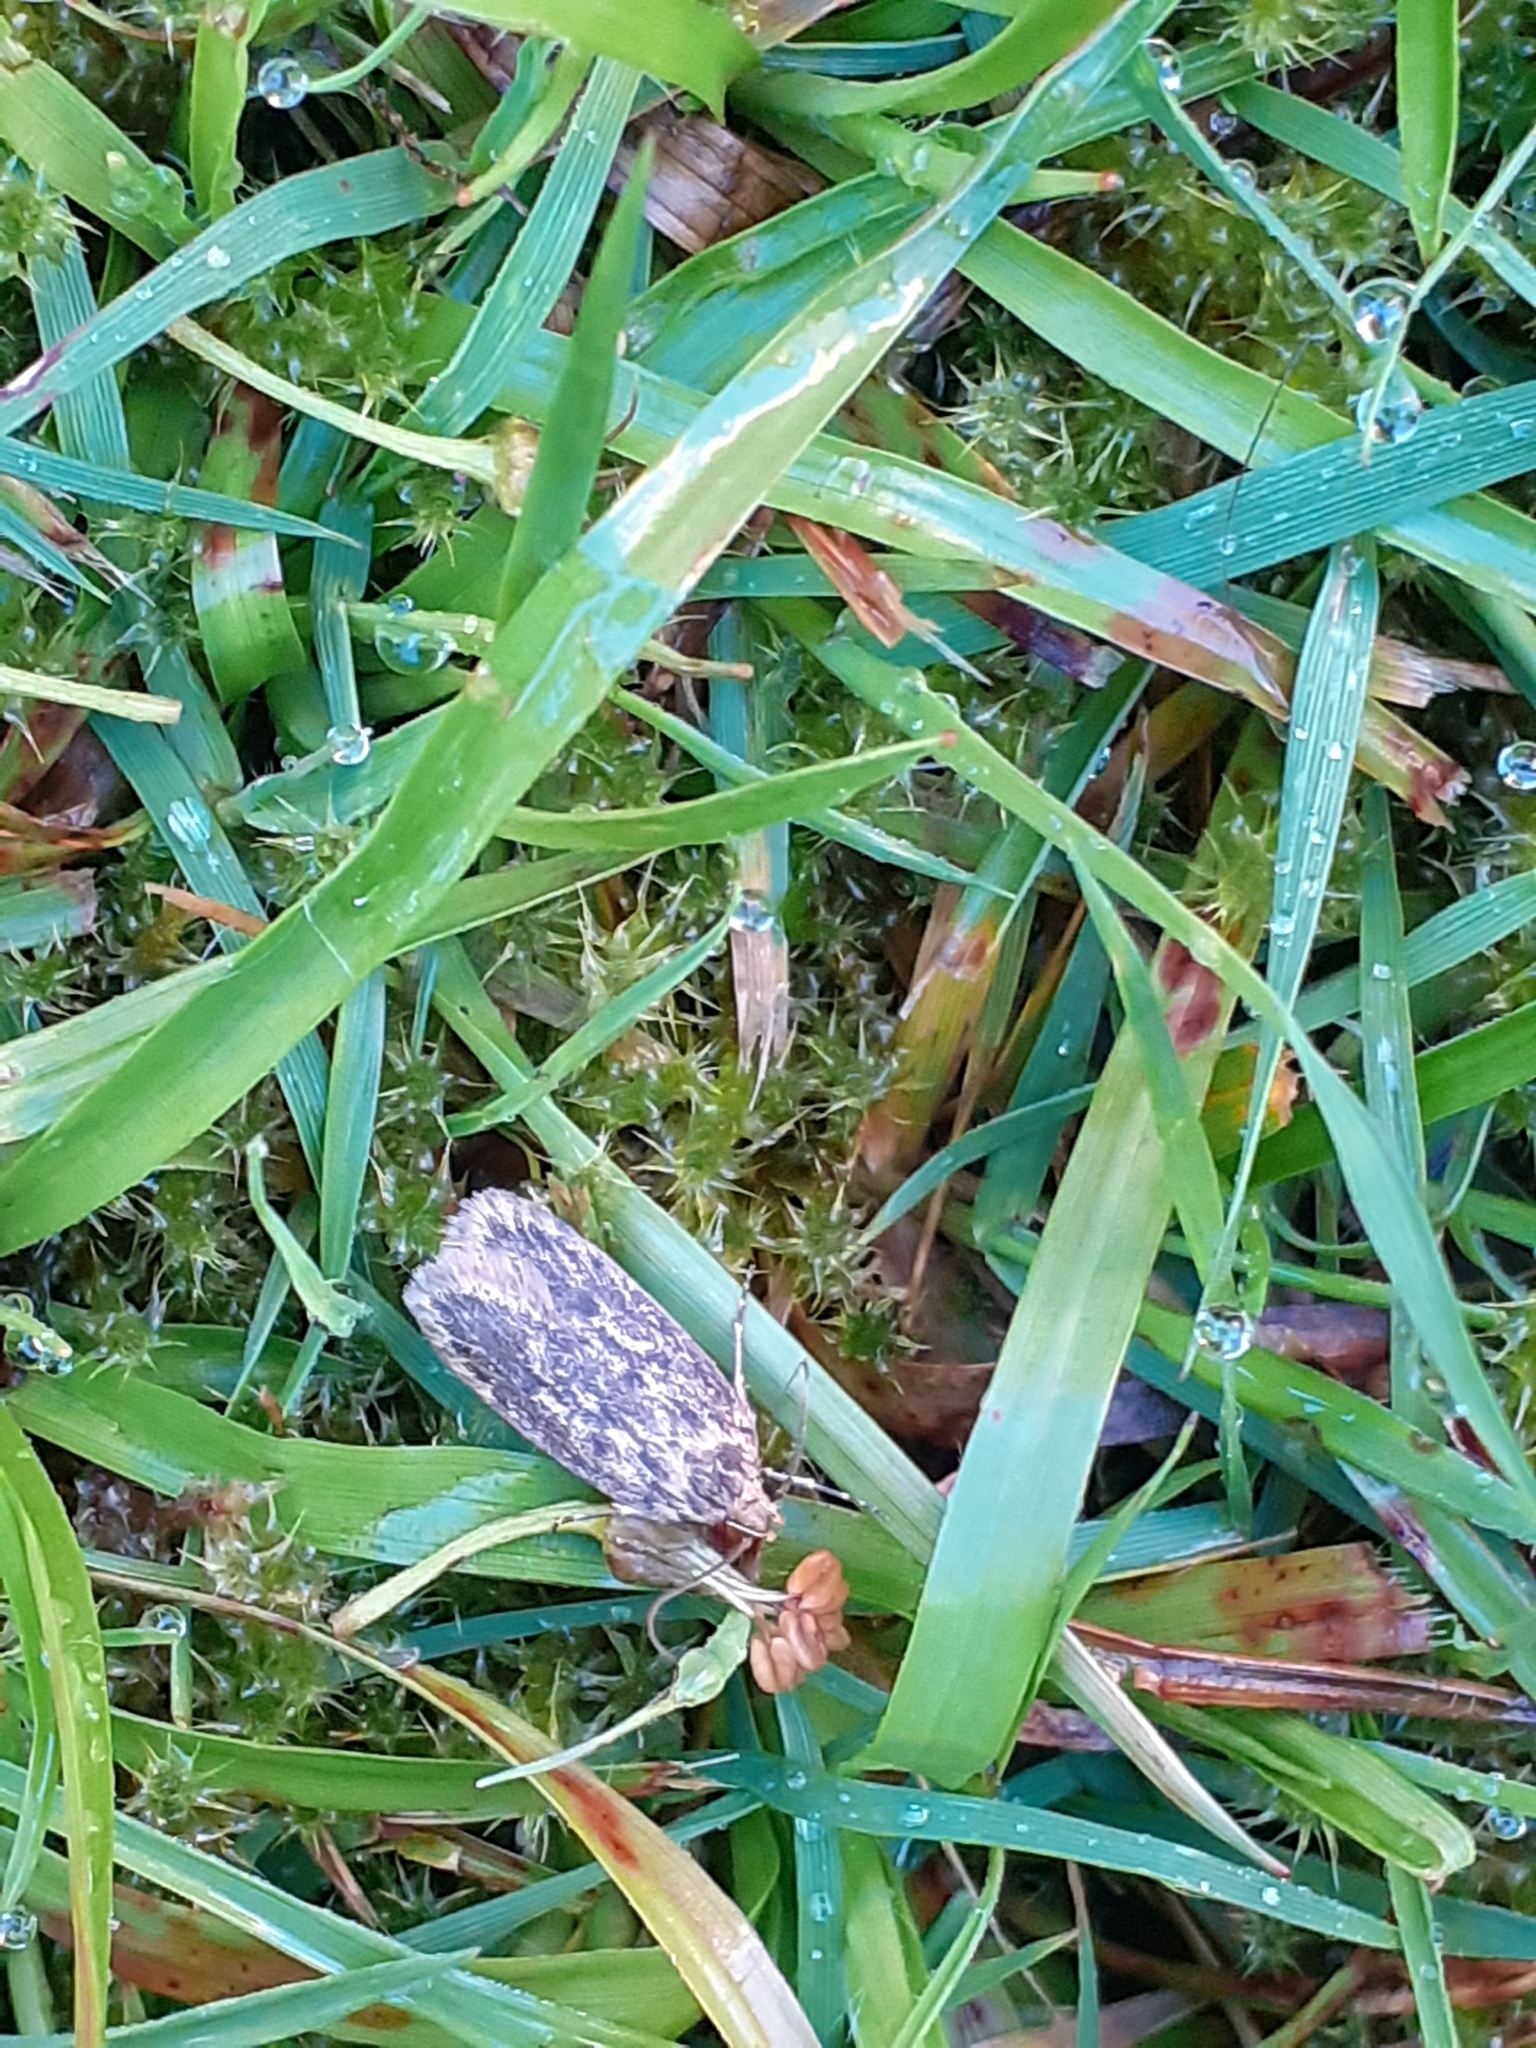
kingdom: Animalia
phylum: Arthropoda
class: Insecta
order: Lepidoptera
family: Oecophoridae
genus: Hofmannophila
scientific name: Hofmannophila pseudospretella
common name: Brown house moth
